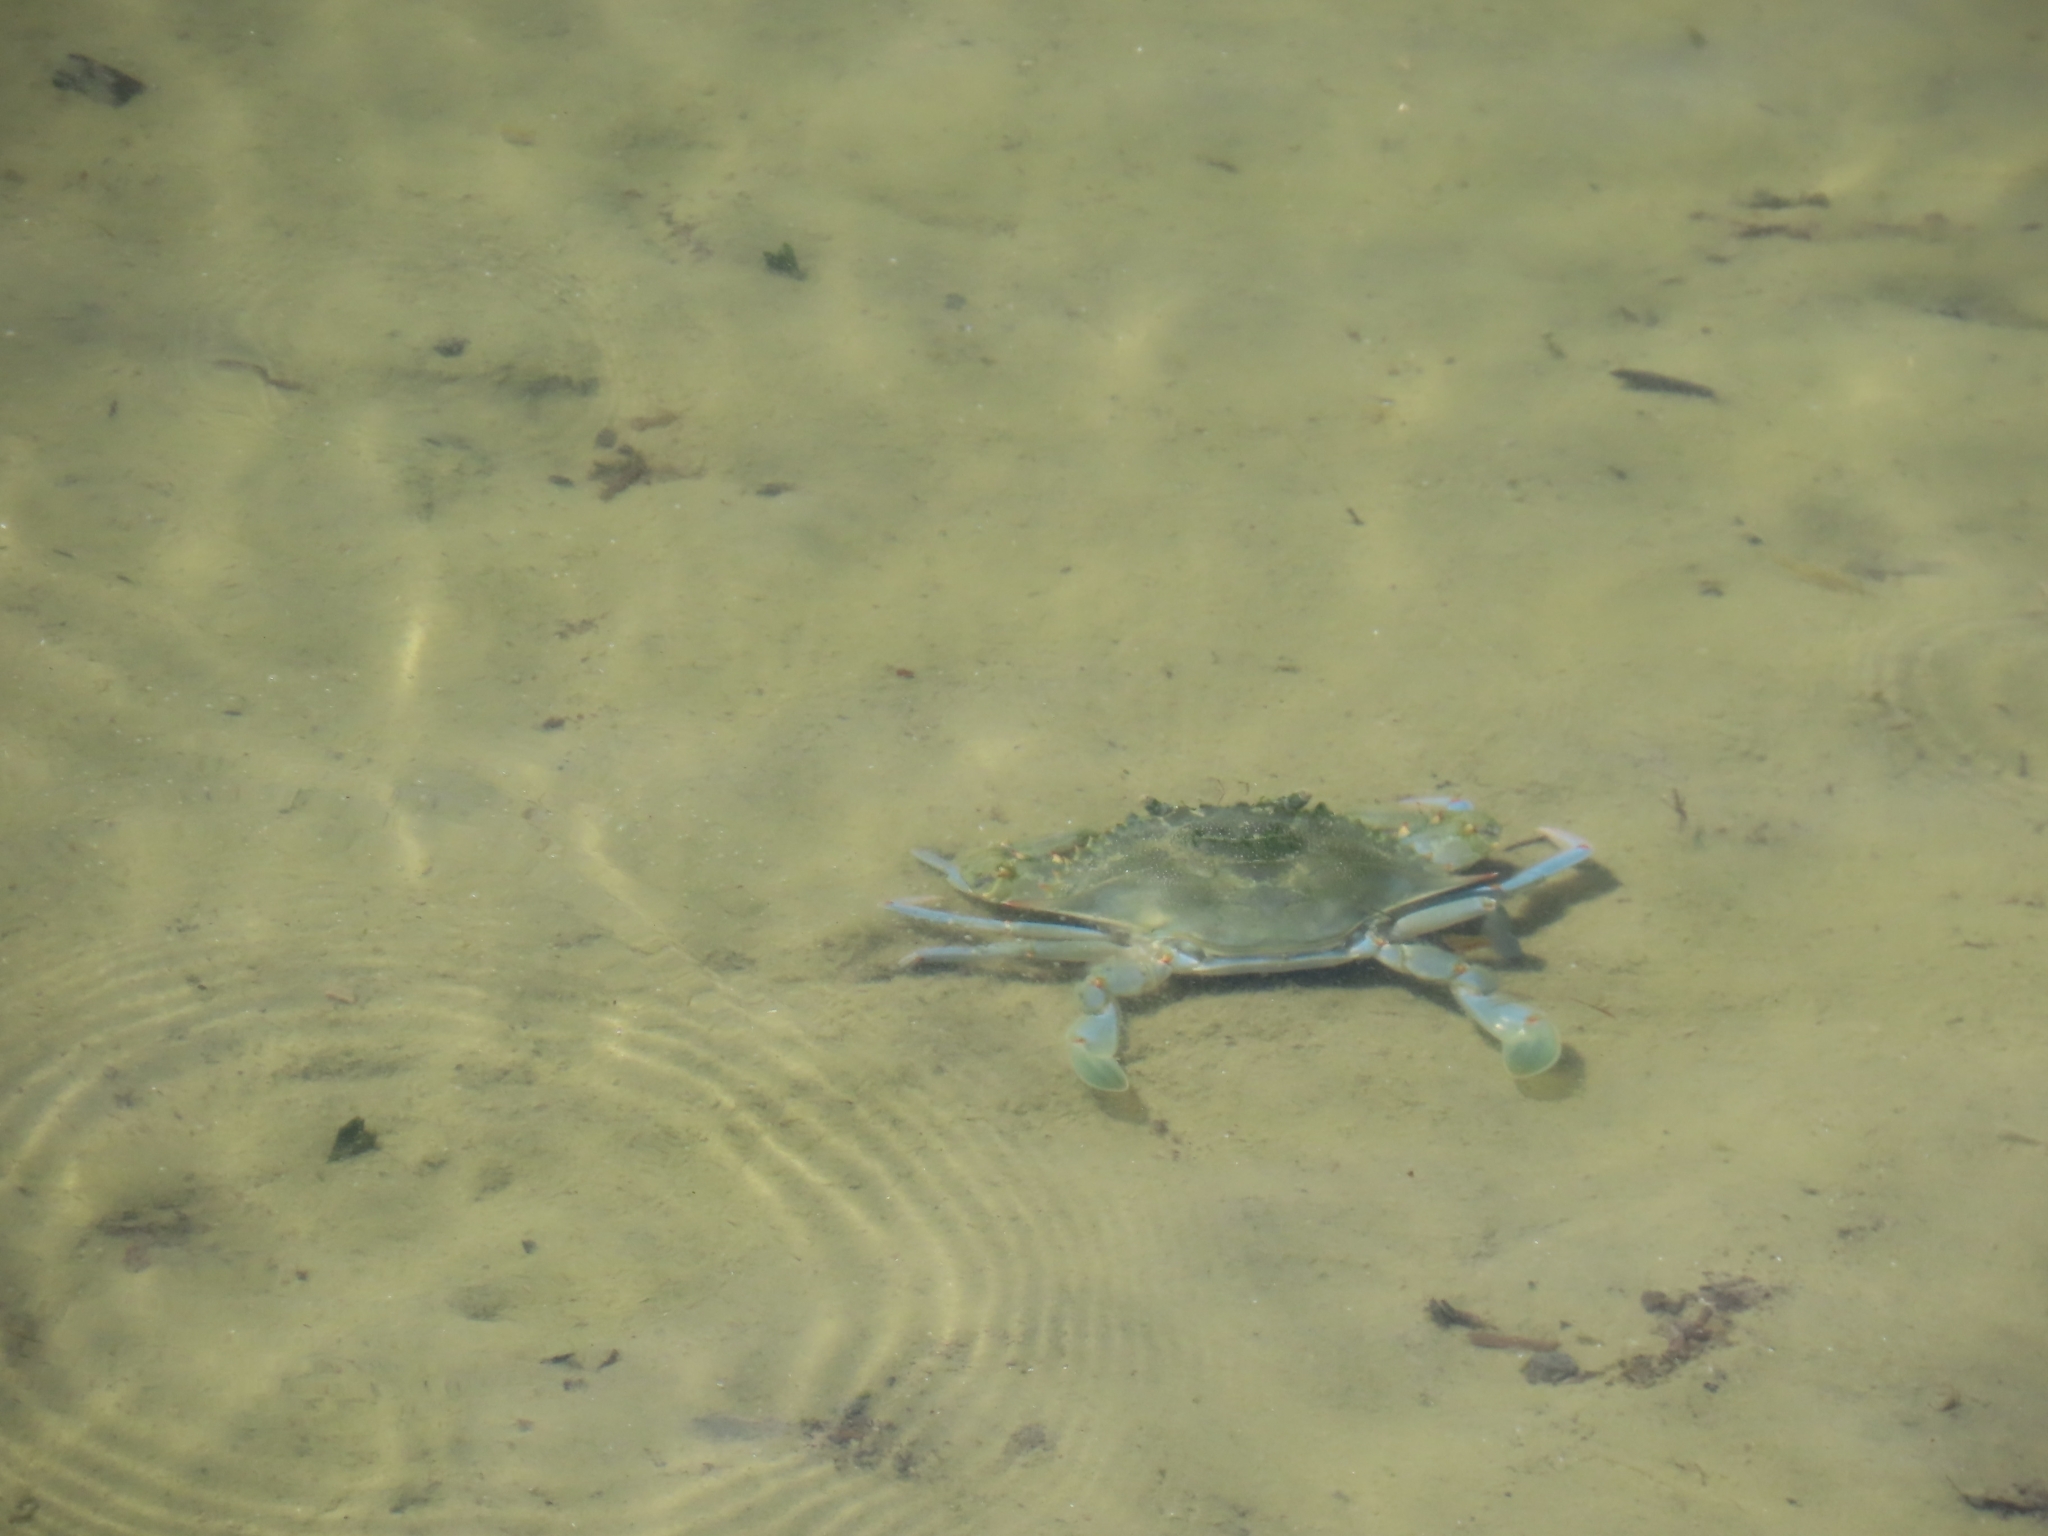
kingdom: Animalia
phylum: Arthropoda
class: Malacostraca
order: Decapoda
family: Portunidae
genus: Callinectes
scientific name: Callinectes sapidus
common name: Blue crab
